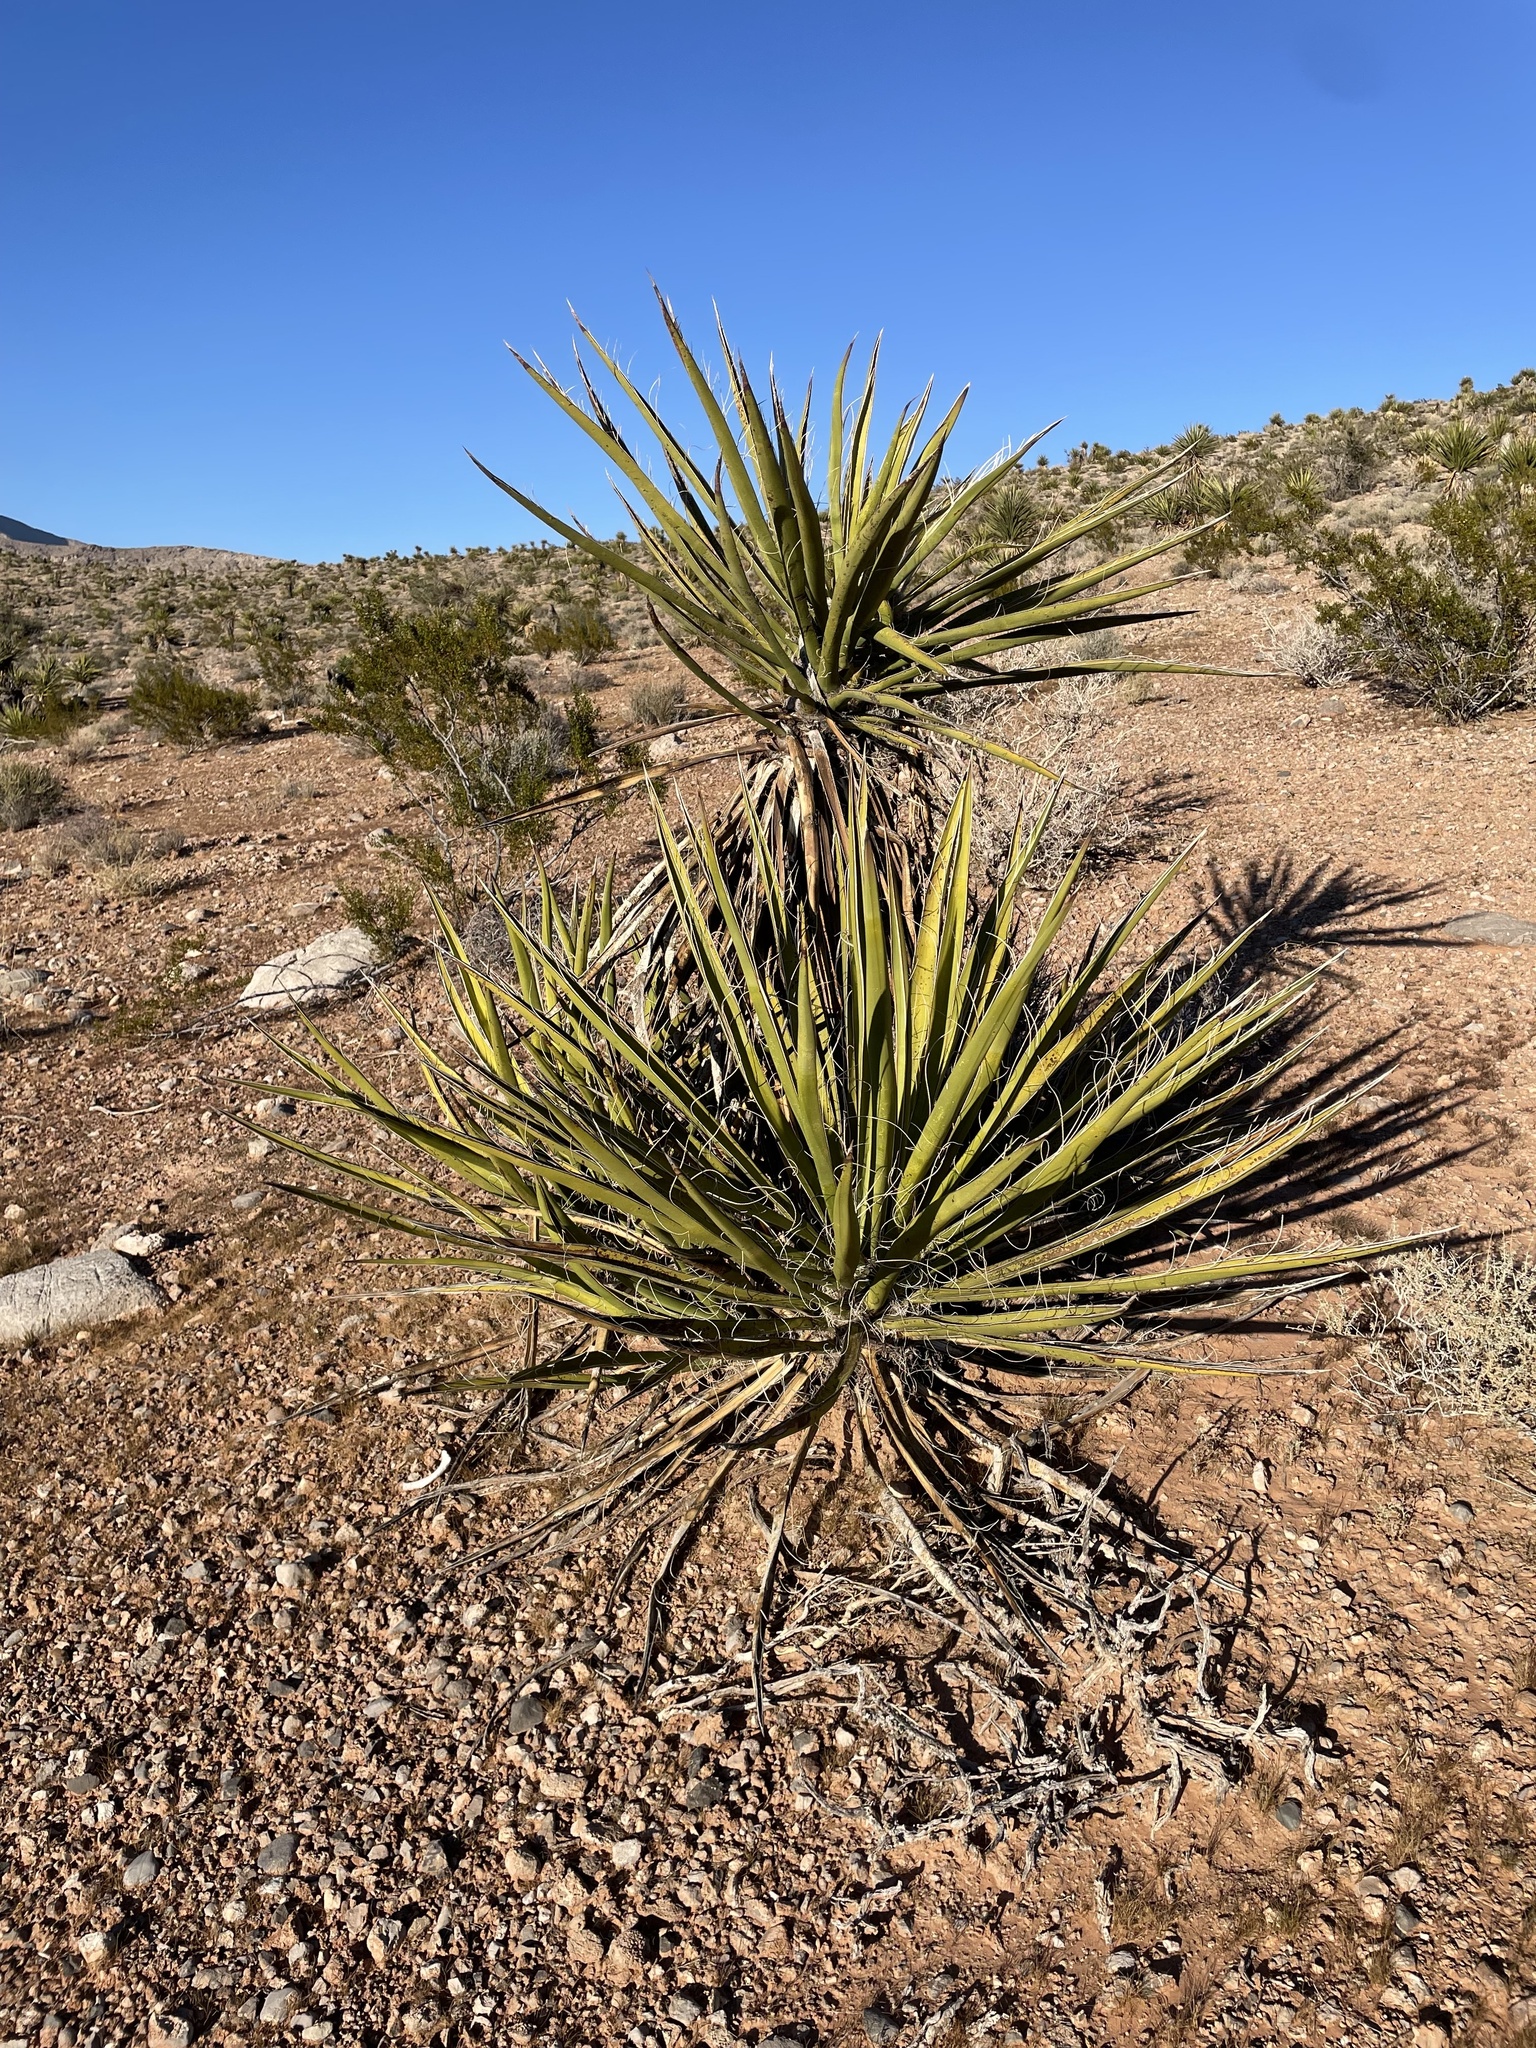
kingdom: Plantae
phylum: Tracheophyta
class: Liliopsida
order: Asparagales
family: Asparagaceae
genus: Yucca
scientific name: Yucca schidigera
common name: Mojave yucca
